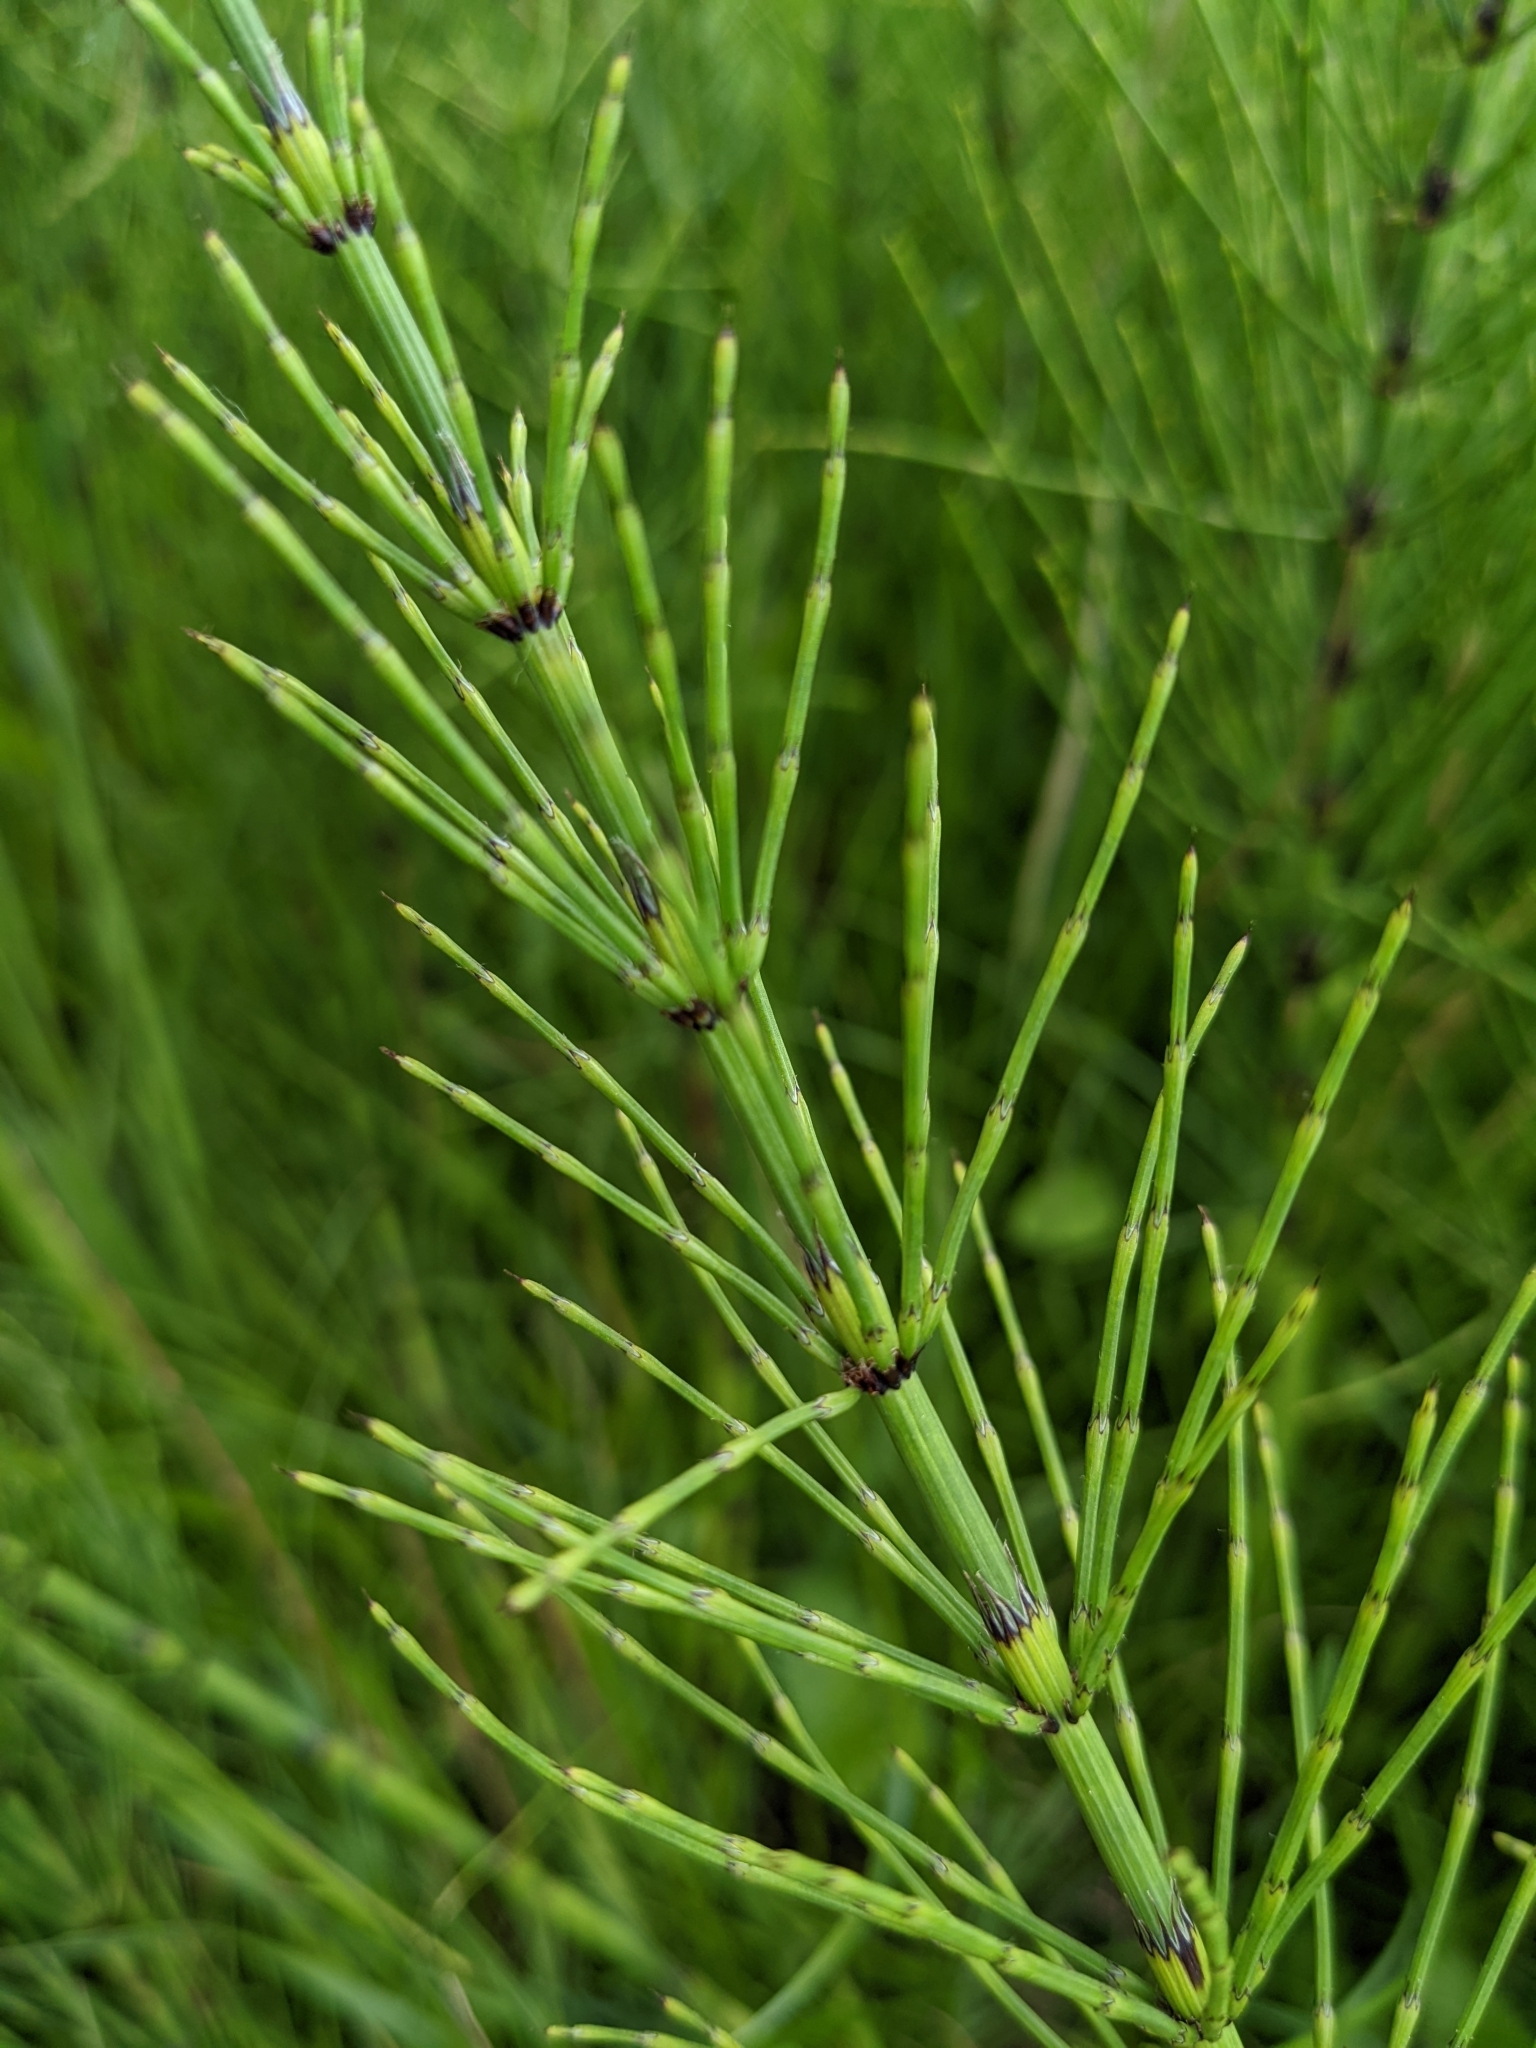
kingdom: Plantae
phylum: Tracheophyta
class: Polypodiopsida
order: Equisetales
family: Equisetaceae
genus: Equisetum
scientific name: Equisetum palustre
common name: Marsh horsetail
